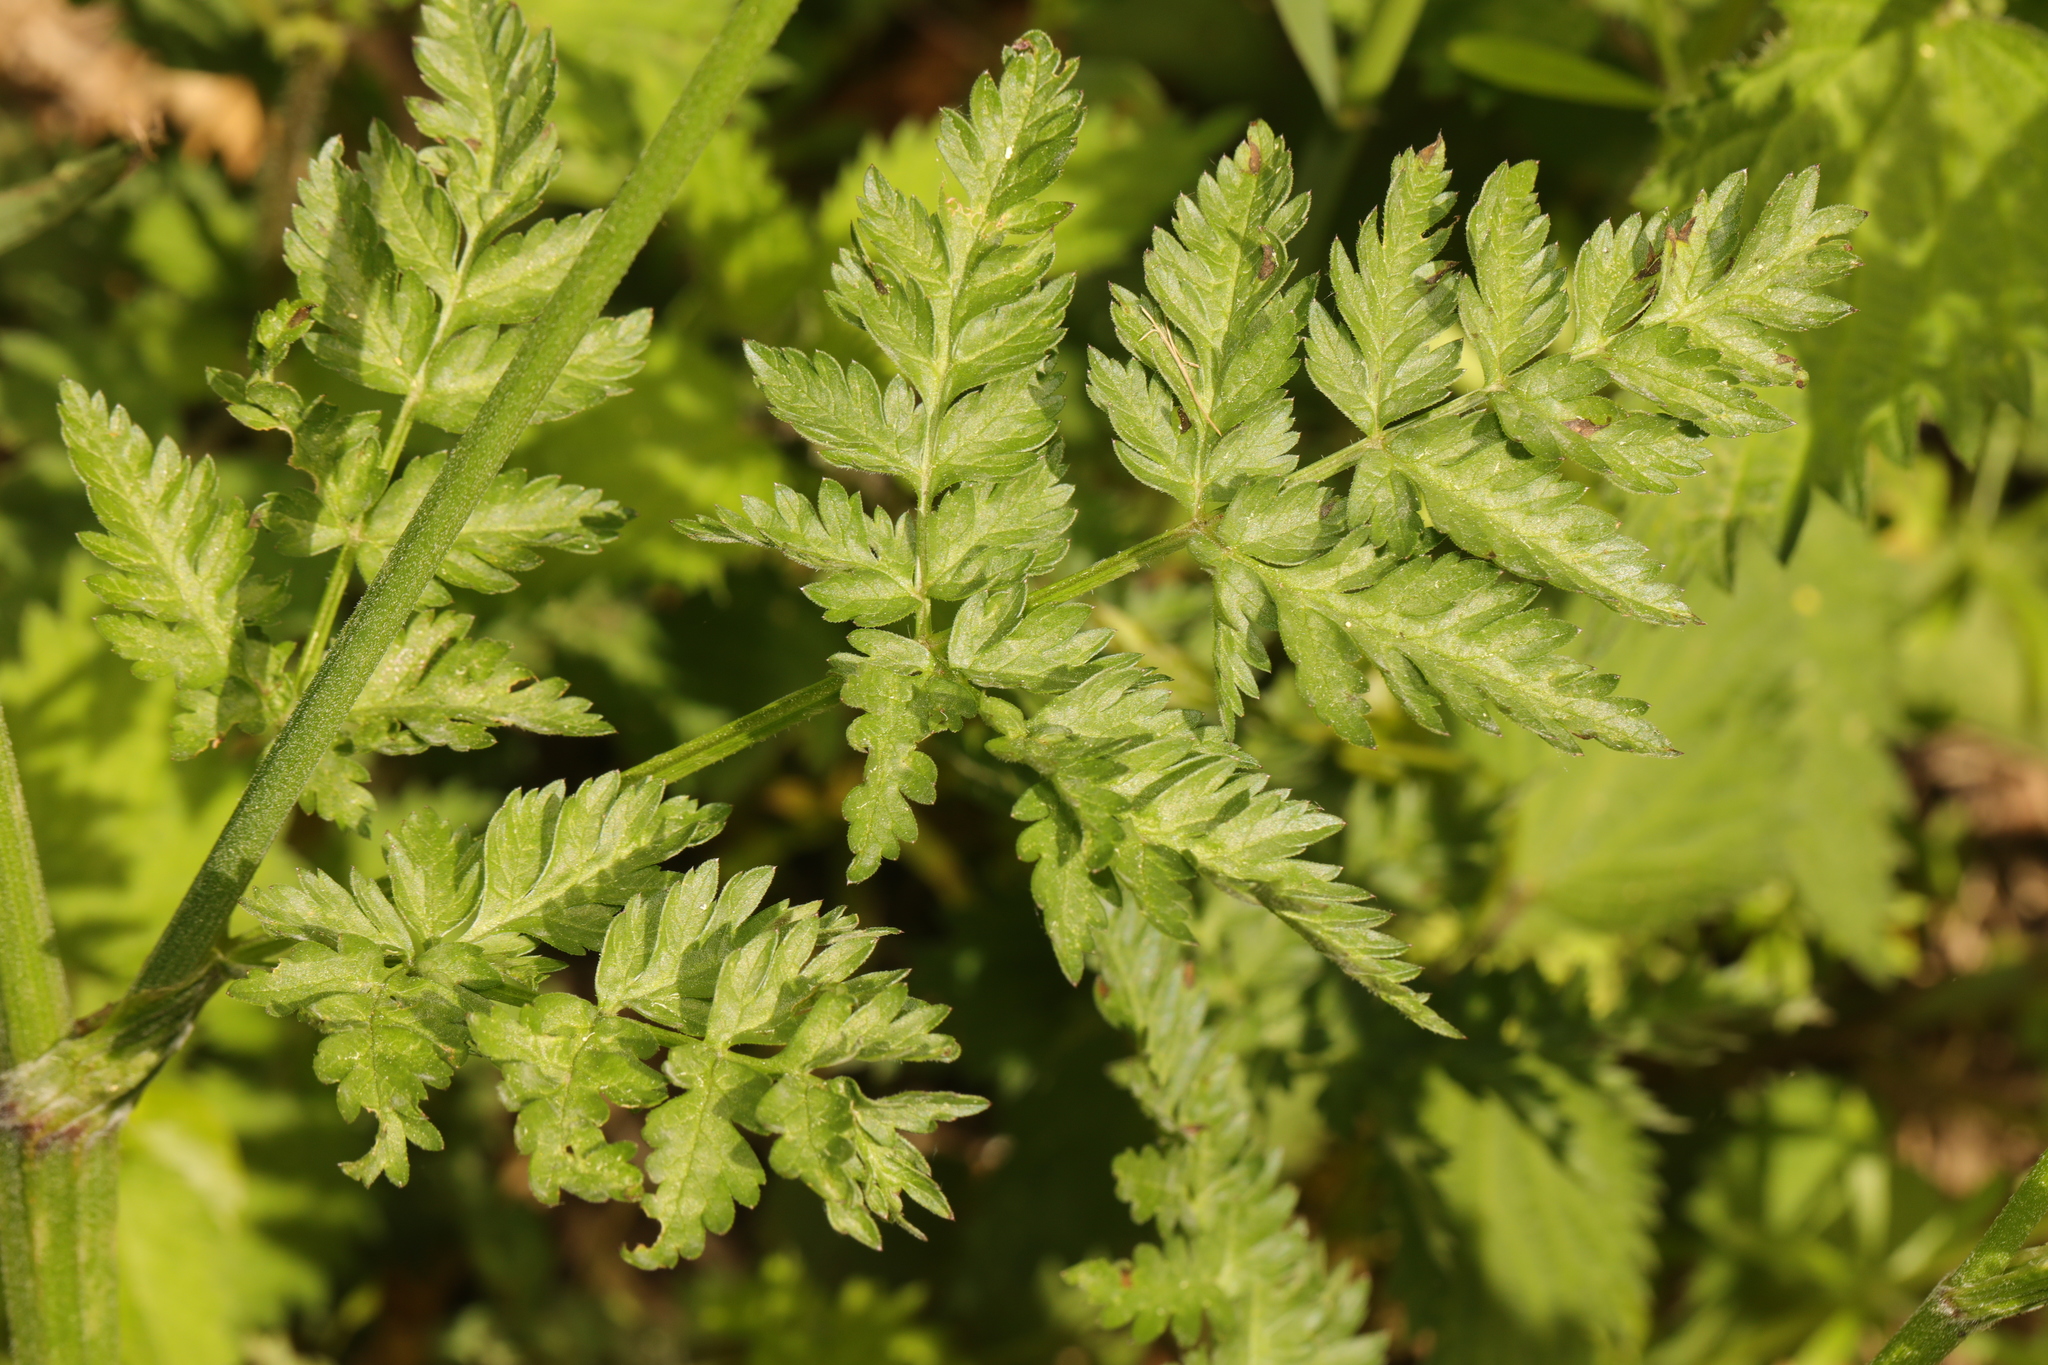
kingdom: Plantae
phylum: Tracheophyta
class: Magnoliopsida
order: Apiales
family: Apiaceae
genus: Anthriscus
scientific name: Anthriscus sylvestris
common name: Cow parsley
